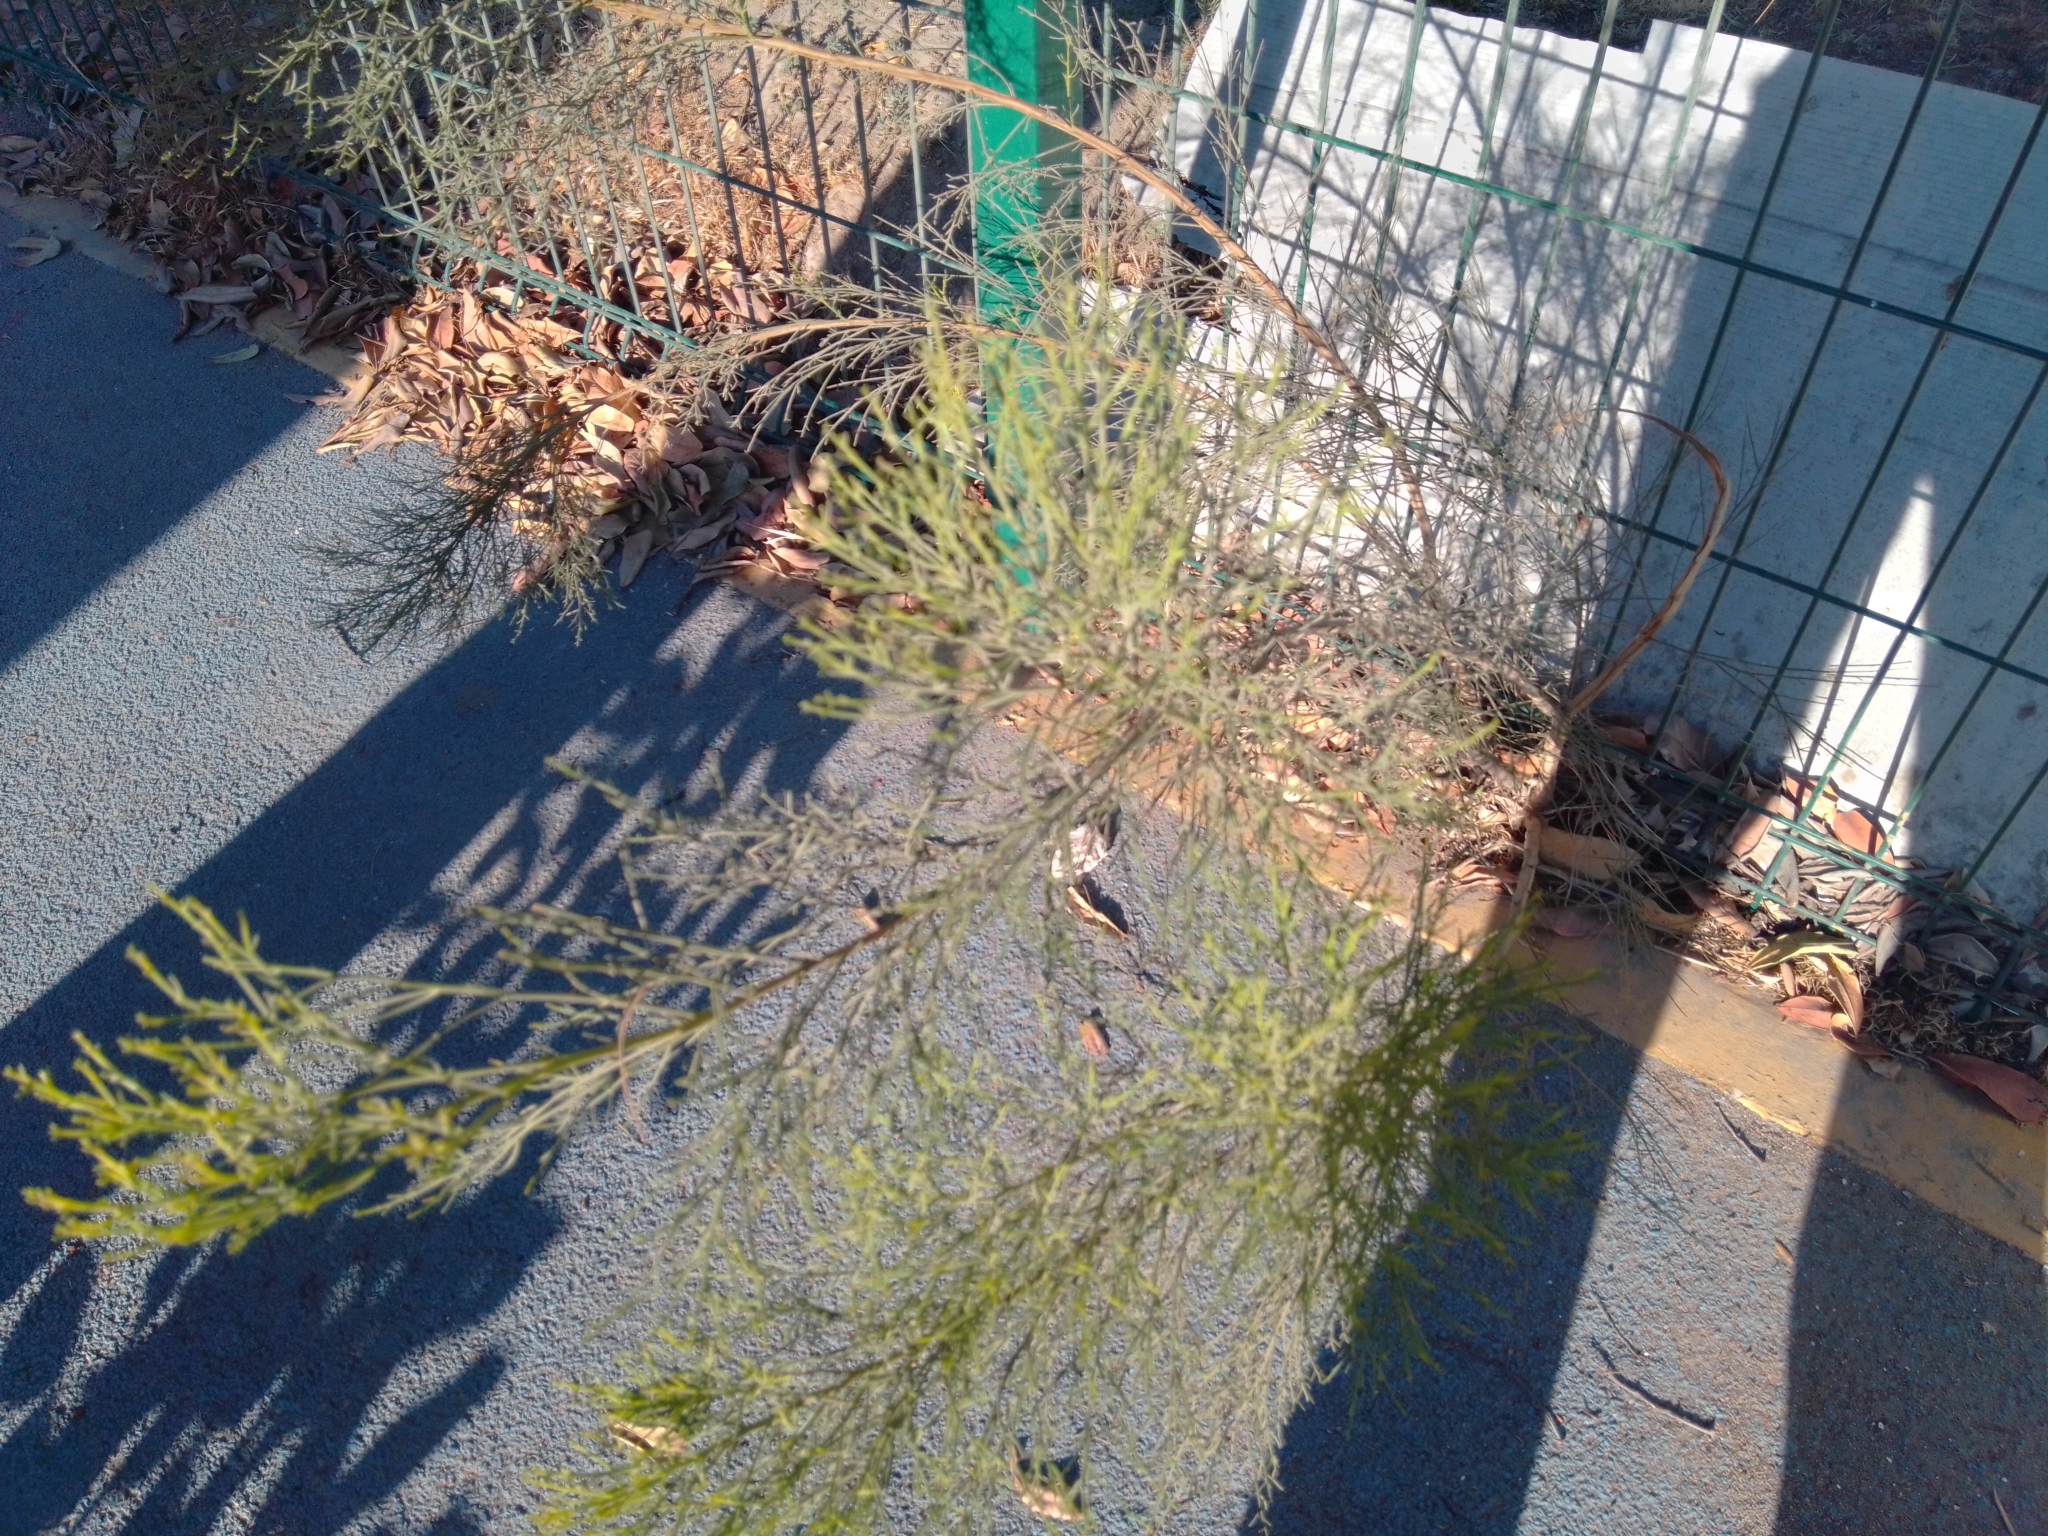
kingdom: Plantae
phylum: Tracheophyta
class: Magnoliopsida
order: Asterales
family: Asteraceae
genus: Baccharis
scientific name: Baccharis sarothroides
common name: Desert-broom
